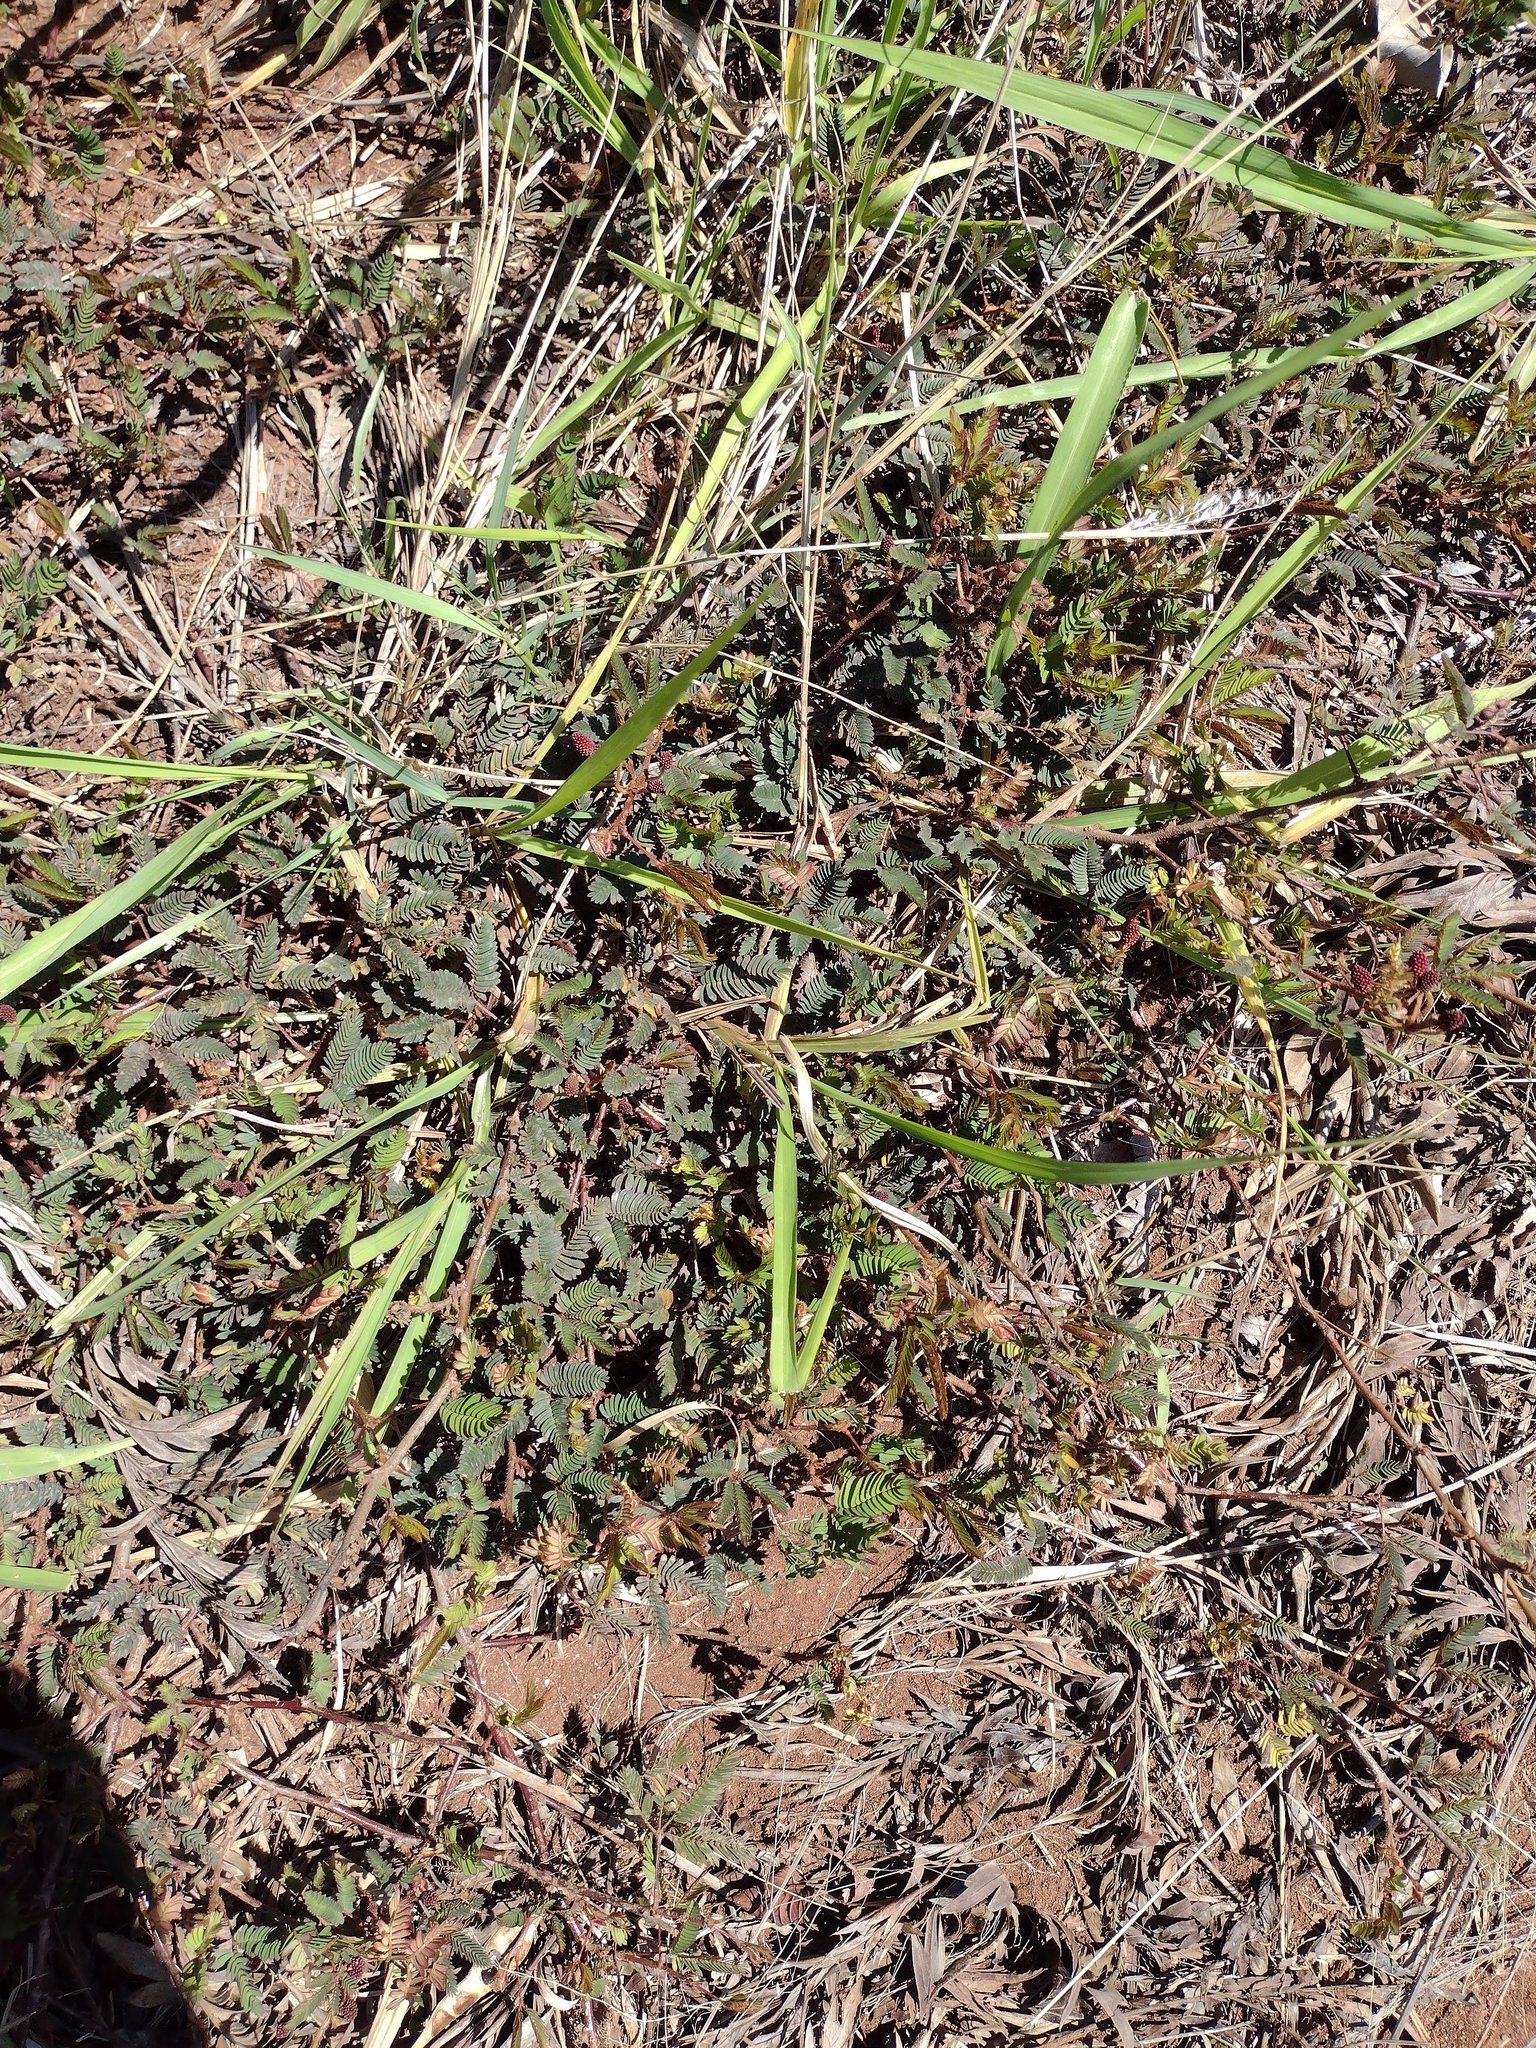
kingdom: Plantae
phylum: Tracheophyta
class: Magnoliopsida
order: Fabales
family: Fabaceae
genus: Mimosa
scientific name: Mimosa pudica
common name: Sensitive plant
